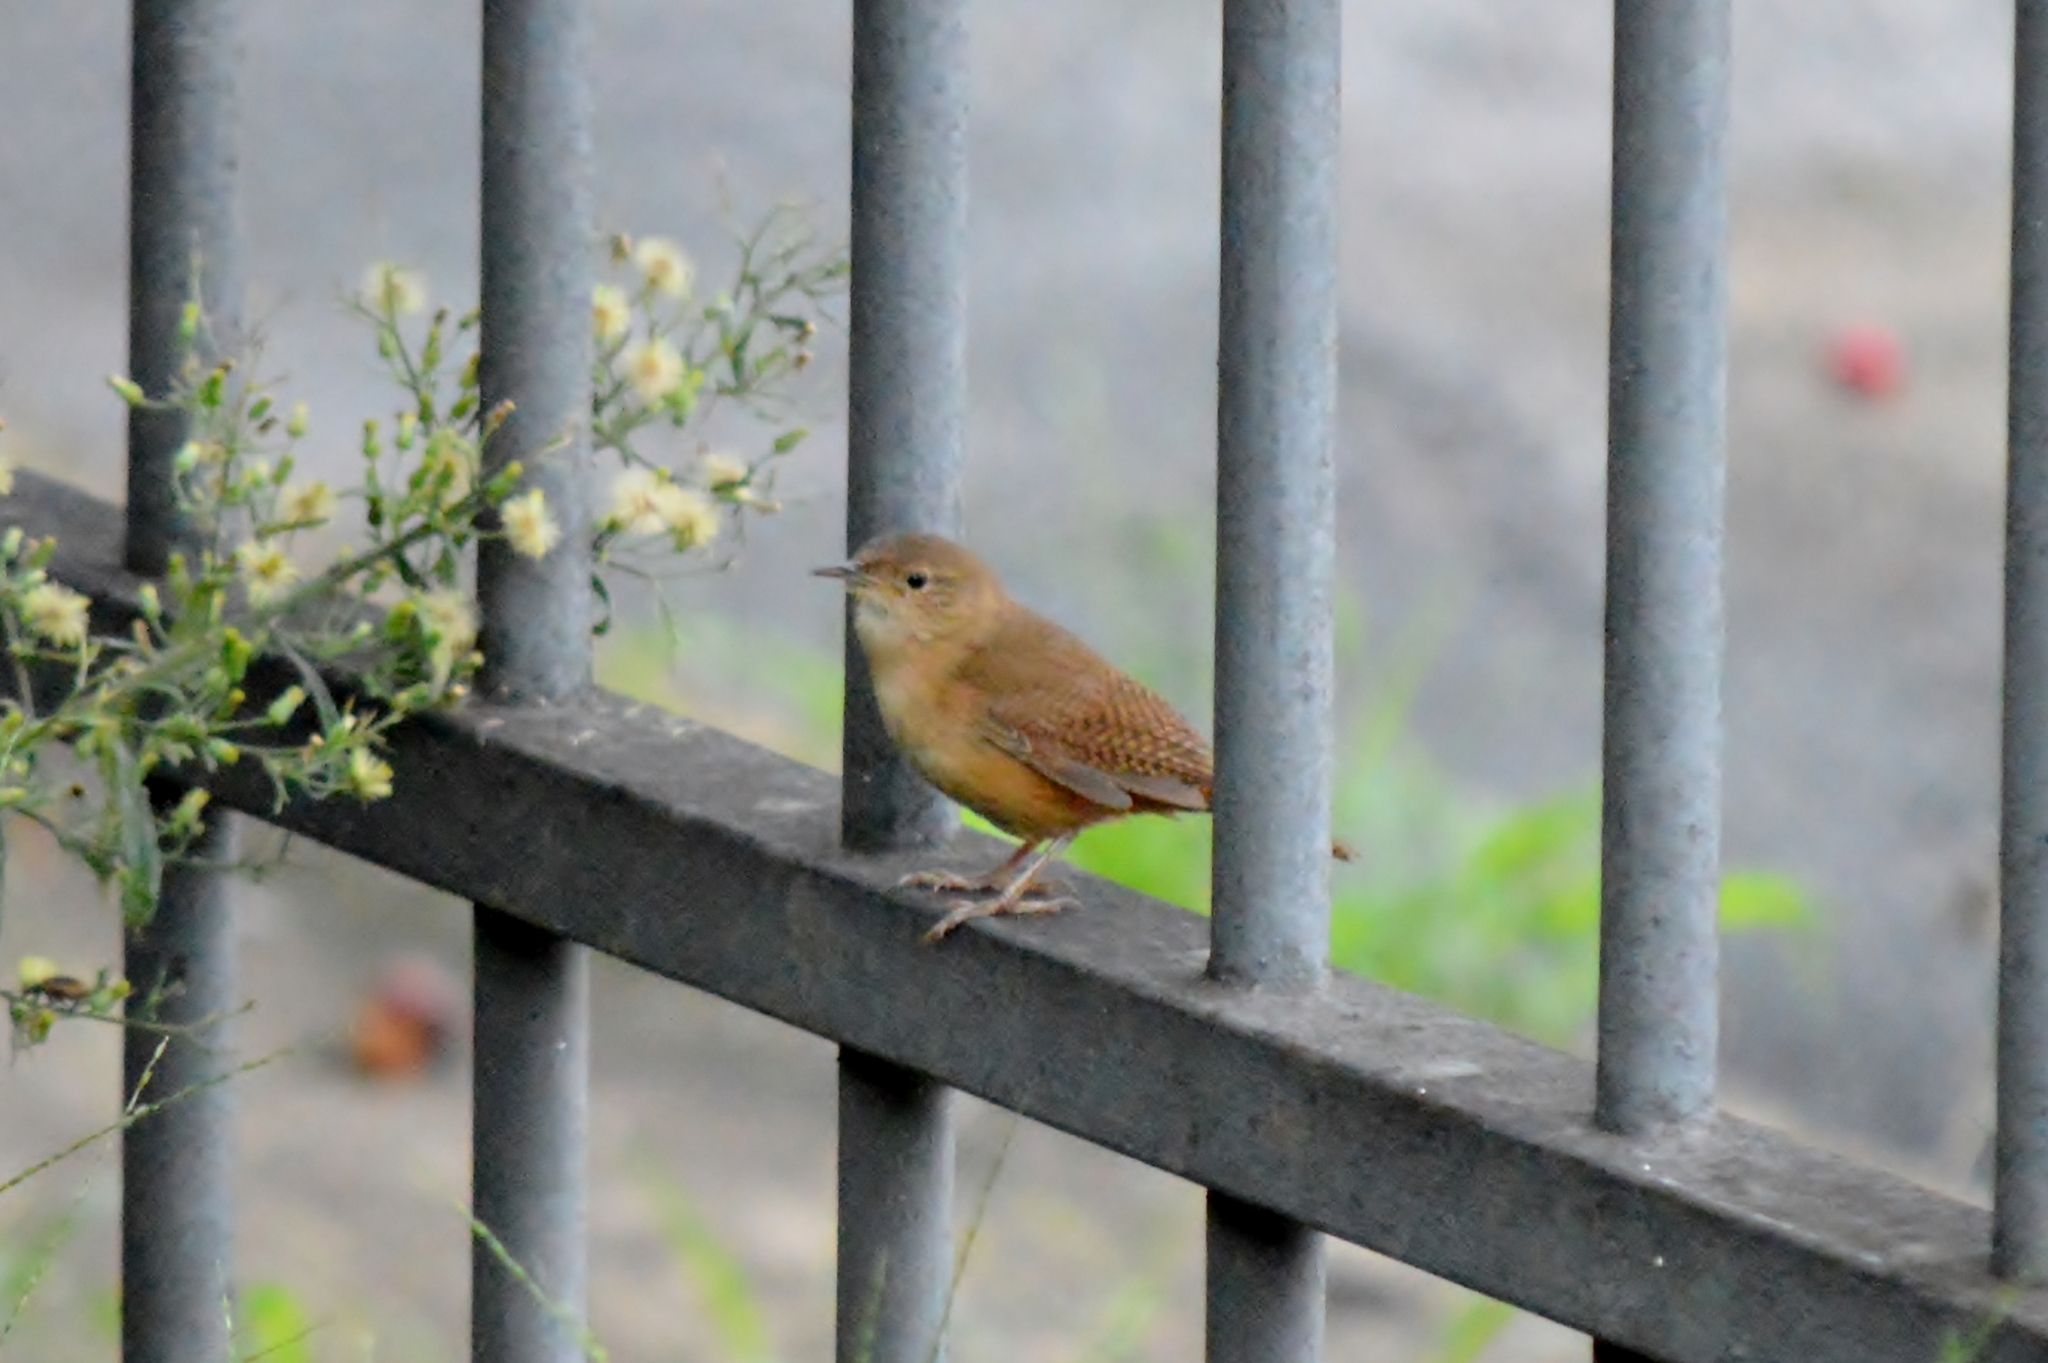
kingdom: Animalia
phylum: Chordata
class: Aves
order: Passeriformes
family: Troglodytidae
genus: Troglodytes
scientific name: Troglodytes aedon
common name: House wren
